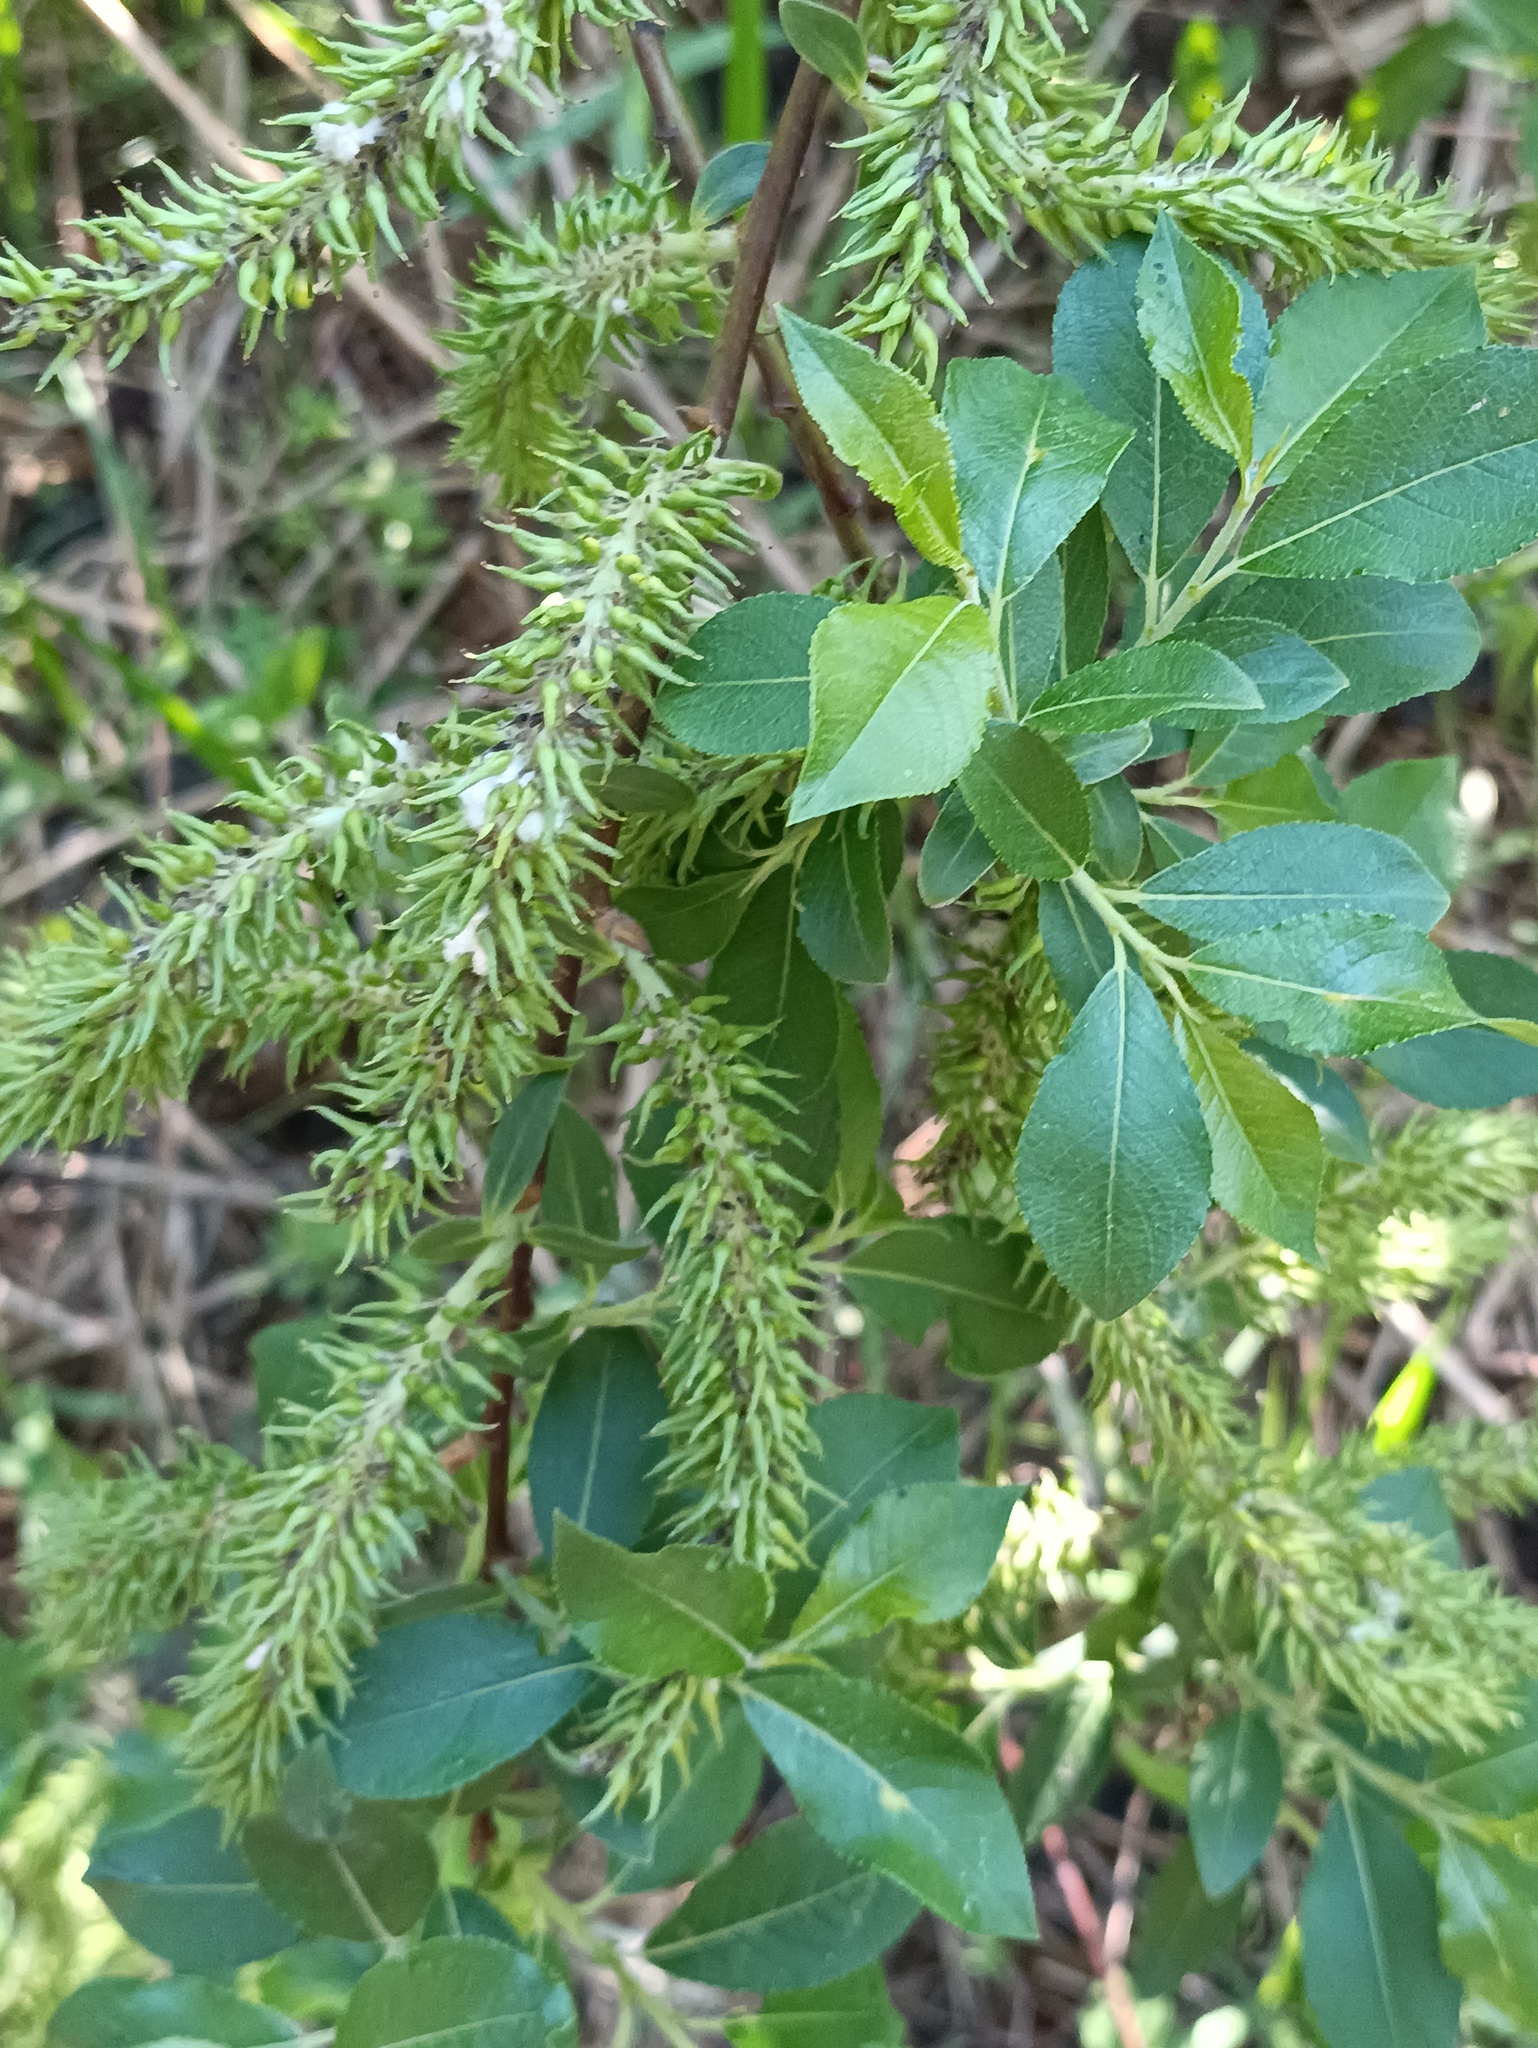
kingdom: Plantae
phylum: Tracheophyta
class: Magnoliopsida
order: Malpighiales
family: Salicaceae
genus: Salix
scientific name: Salix myrsinifolia
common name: Dark-leaved willow
